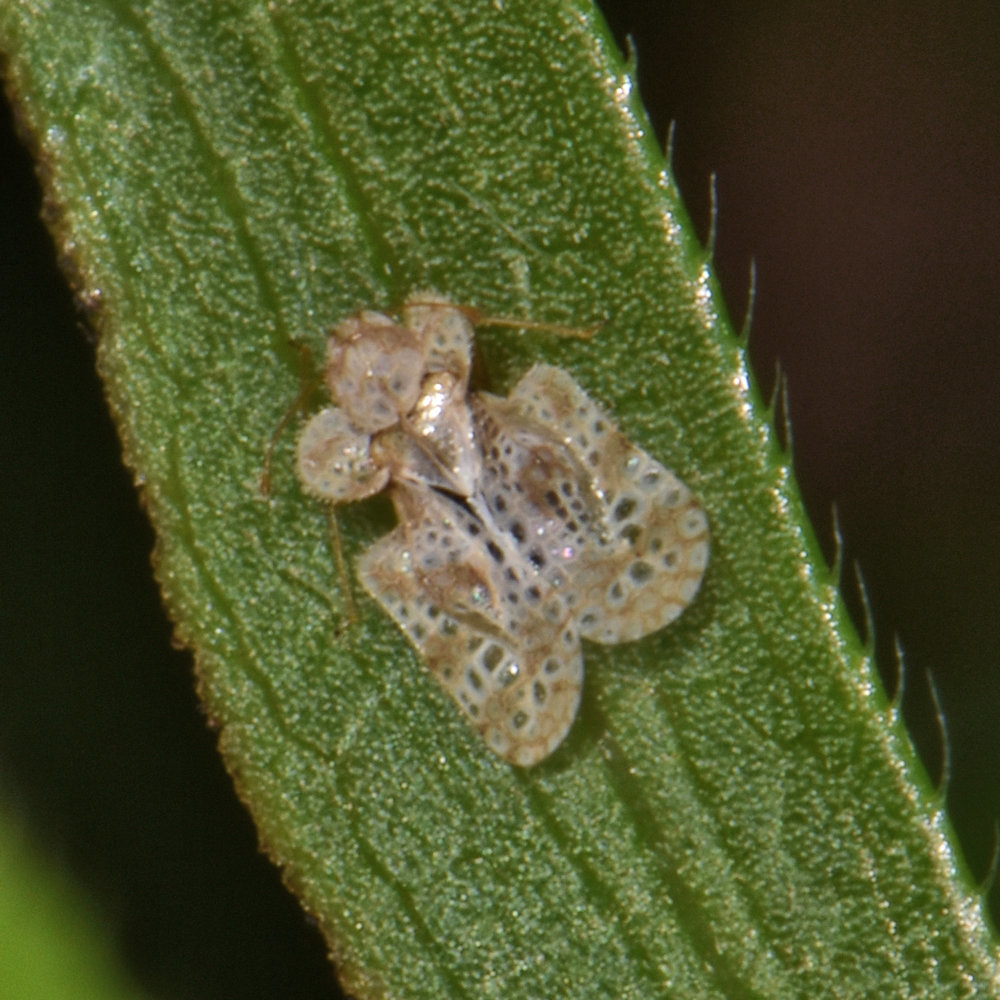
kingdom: Animalia
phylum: Arthropoda
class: Insecta
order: Hemiptera
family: Tingidae
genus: Corythucha
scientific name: Corythucha marmorata
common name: Chrysanthemum lace bug
